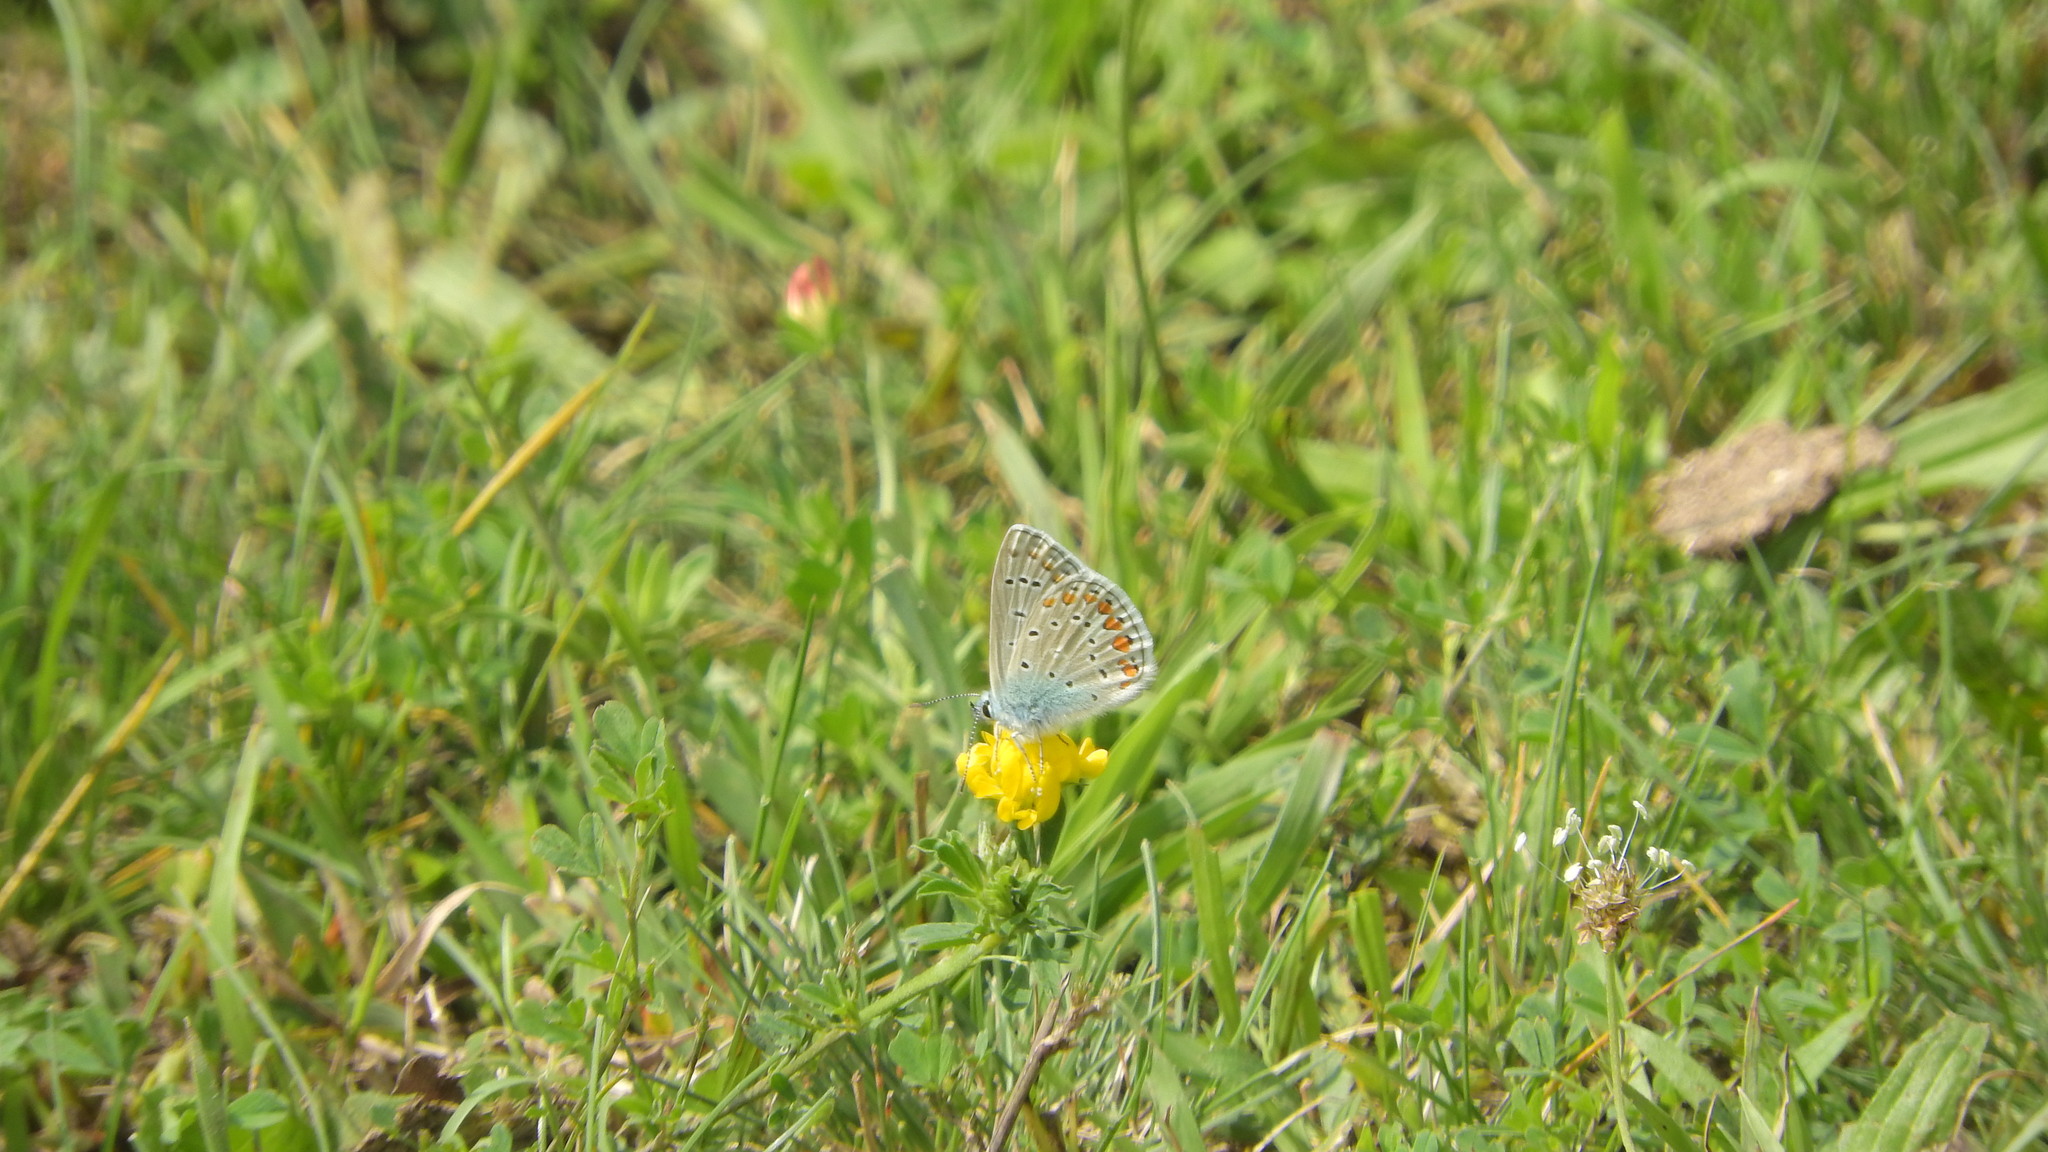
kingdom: Animalia
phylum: Arthropoda
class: Insecta
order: Lepidoptera
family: Lycaenidae
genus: Polyommatus
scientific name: Polyommatus icarus
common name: Common blue
